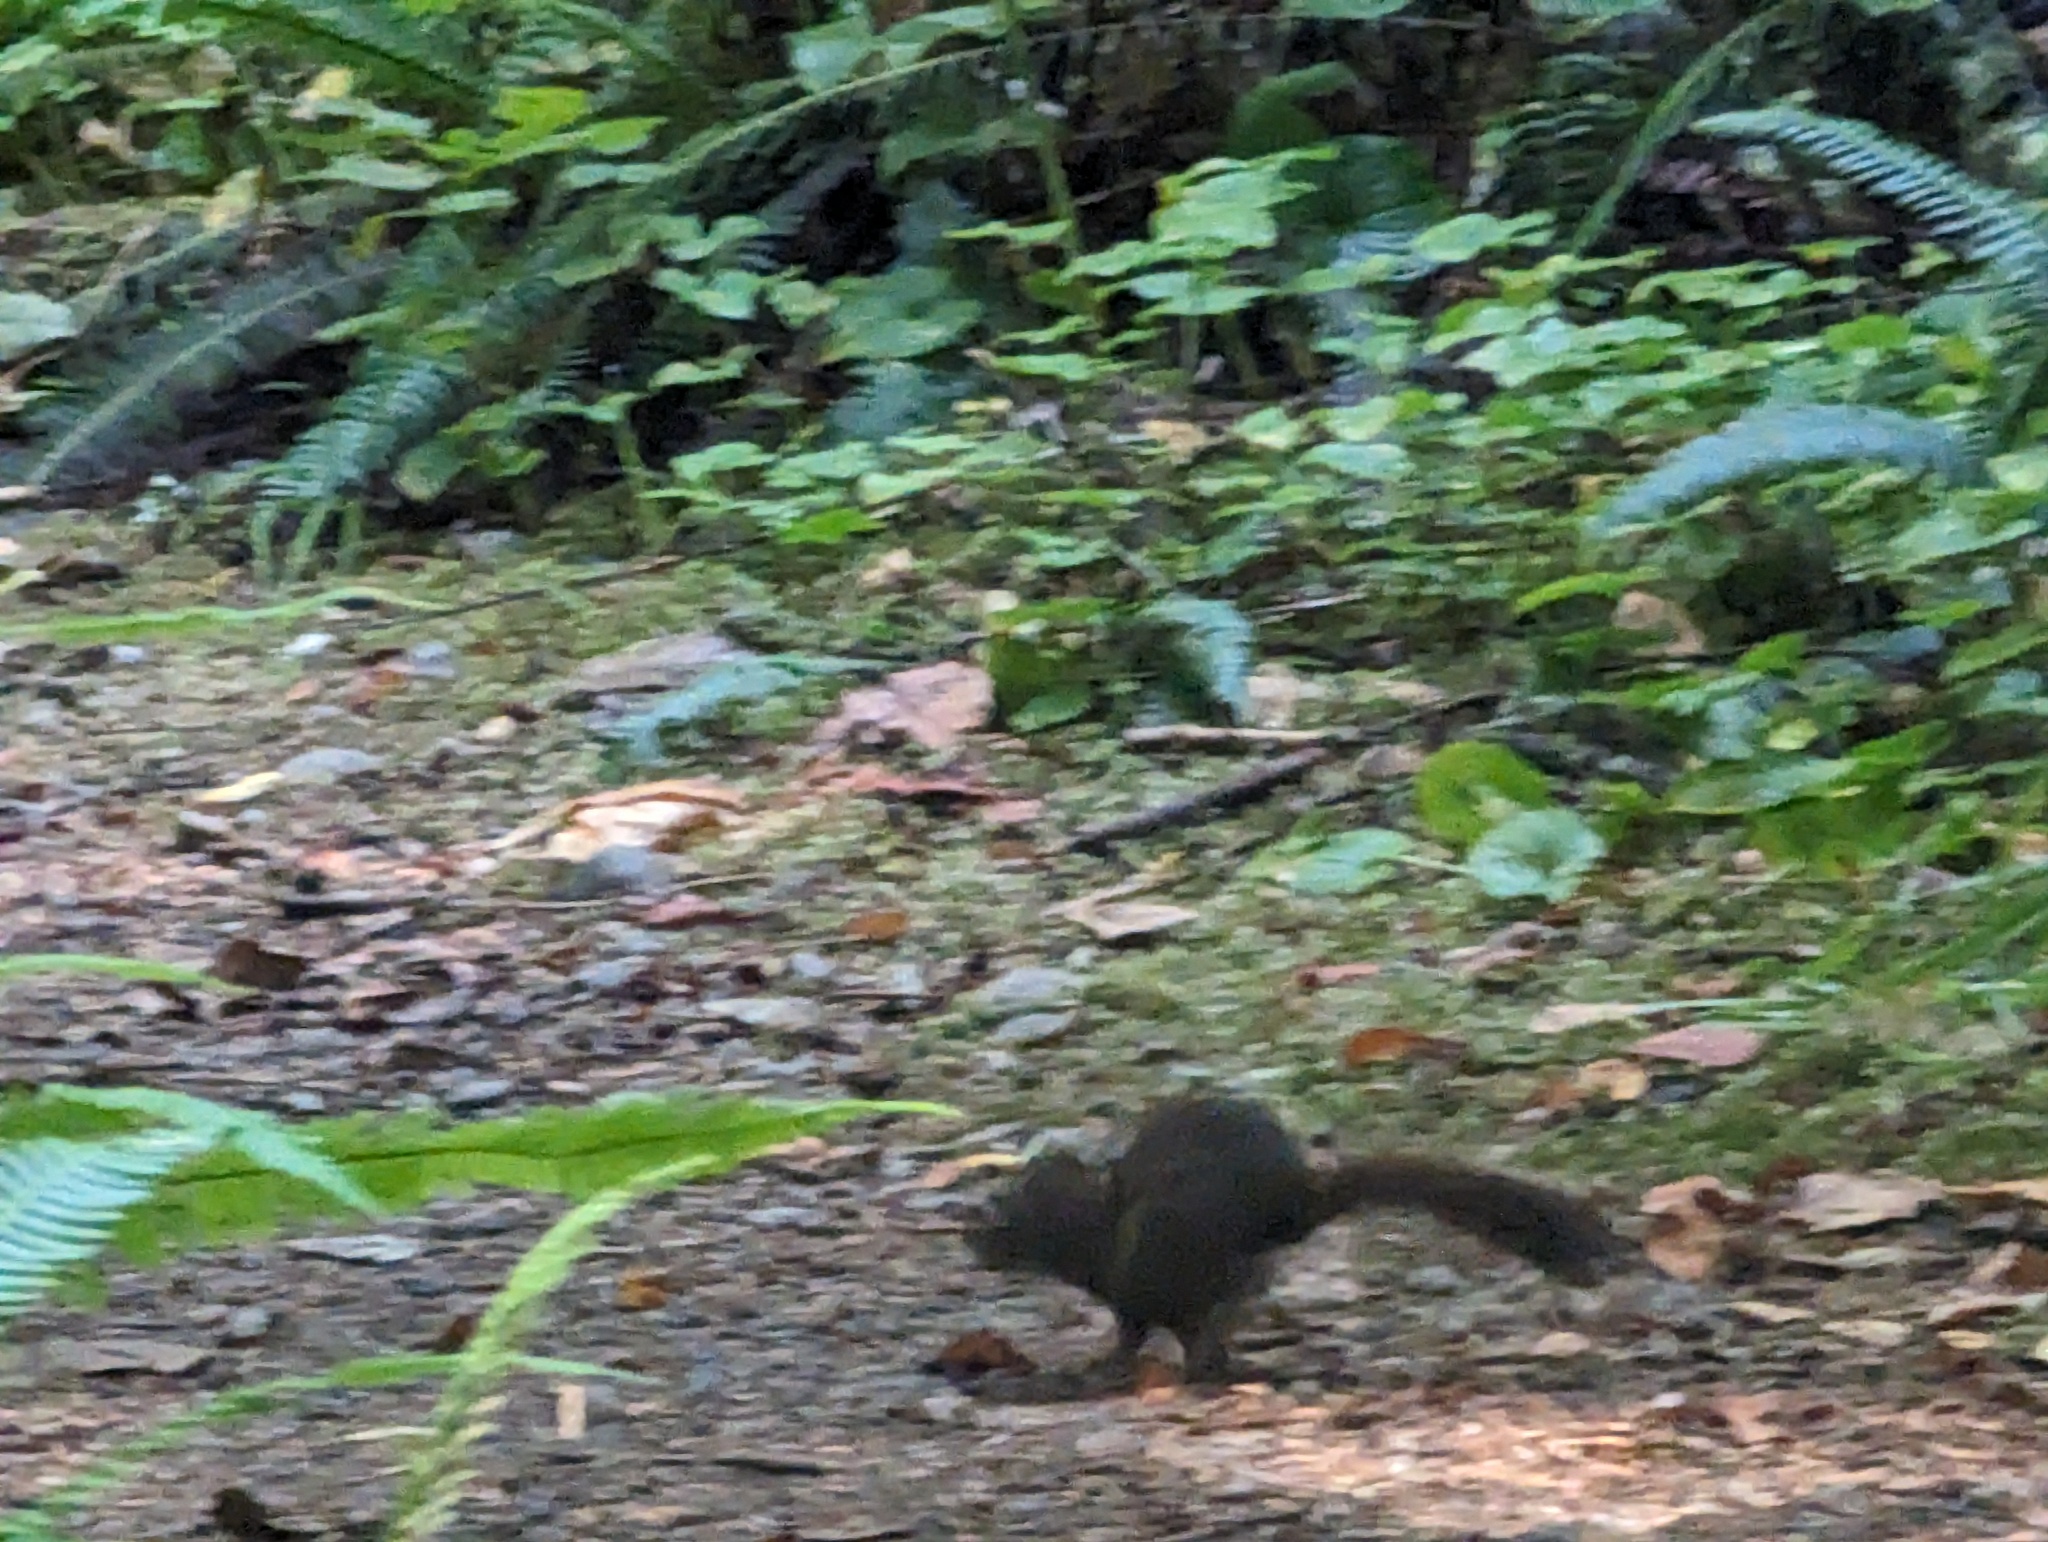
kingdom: Animalia
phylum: Chordata
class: Mammalia
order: Rodentia
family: Sciuridae
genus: Tamiasciurus
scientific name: Tamiasciurus hudsonicus
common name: Red squirrel
